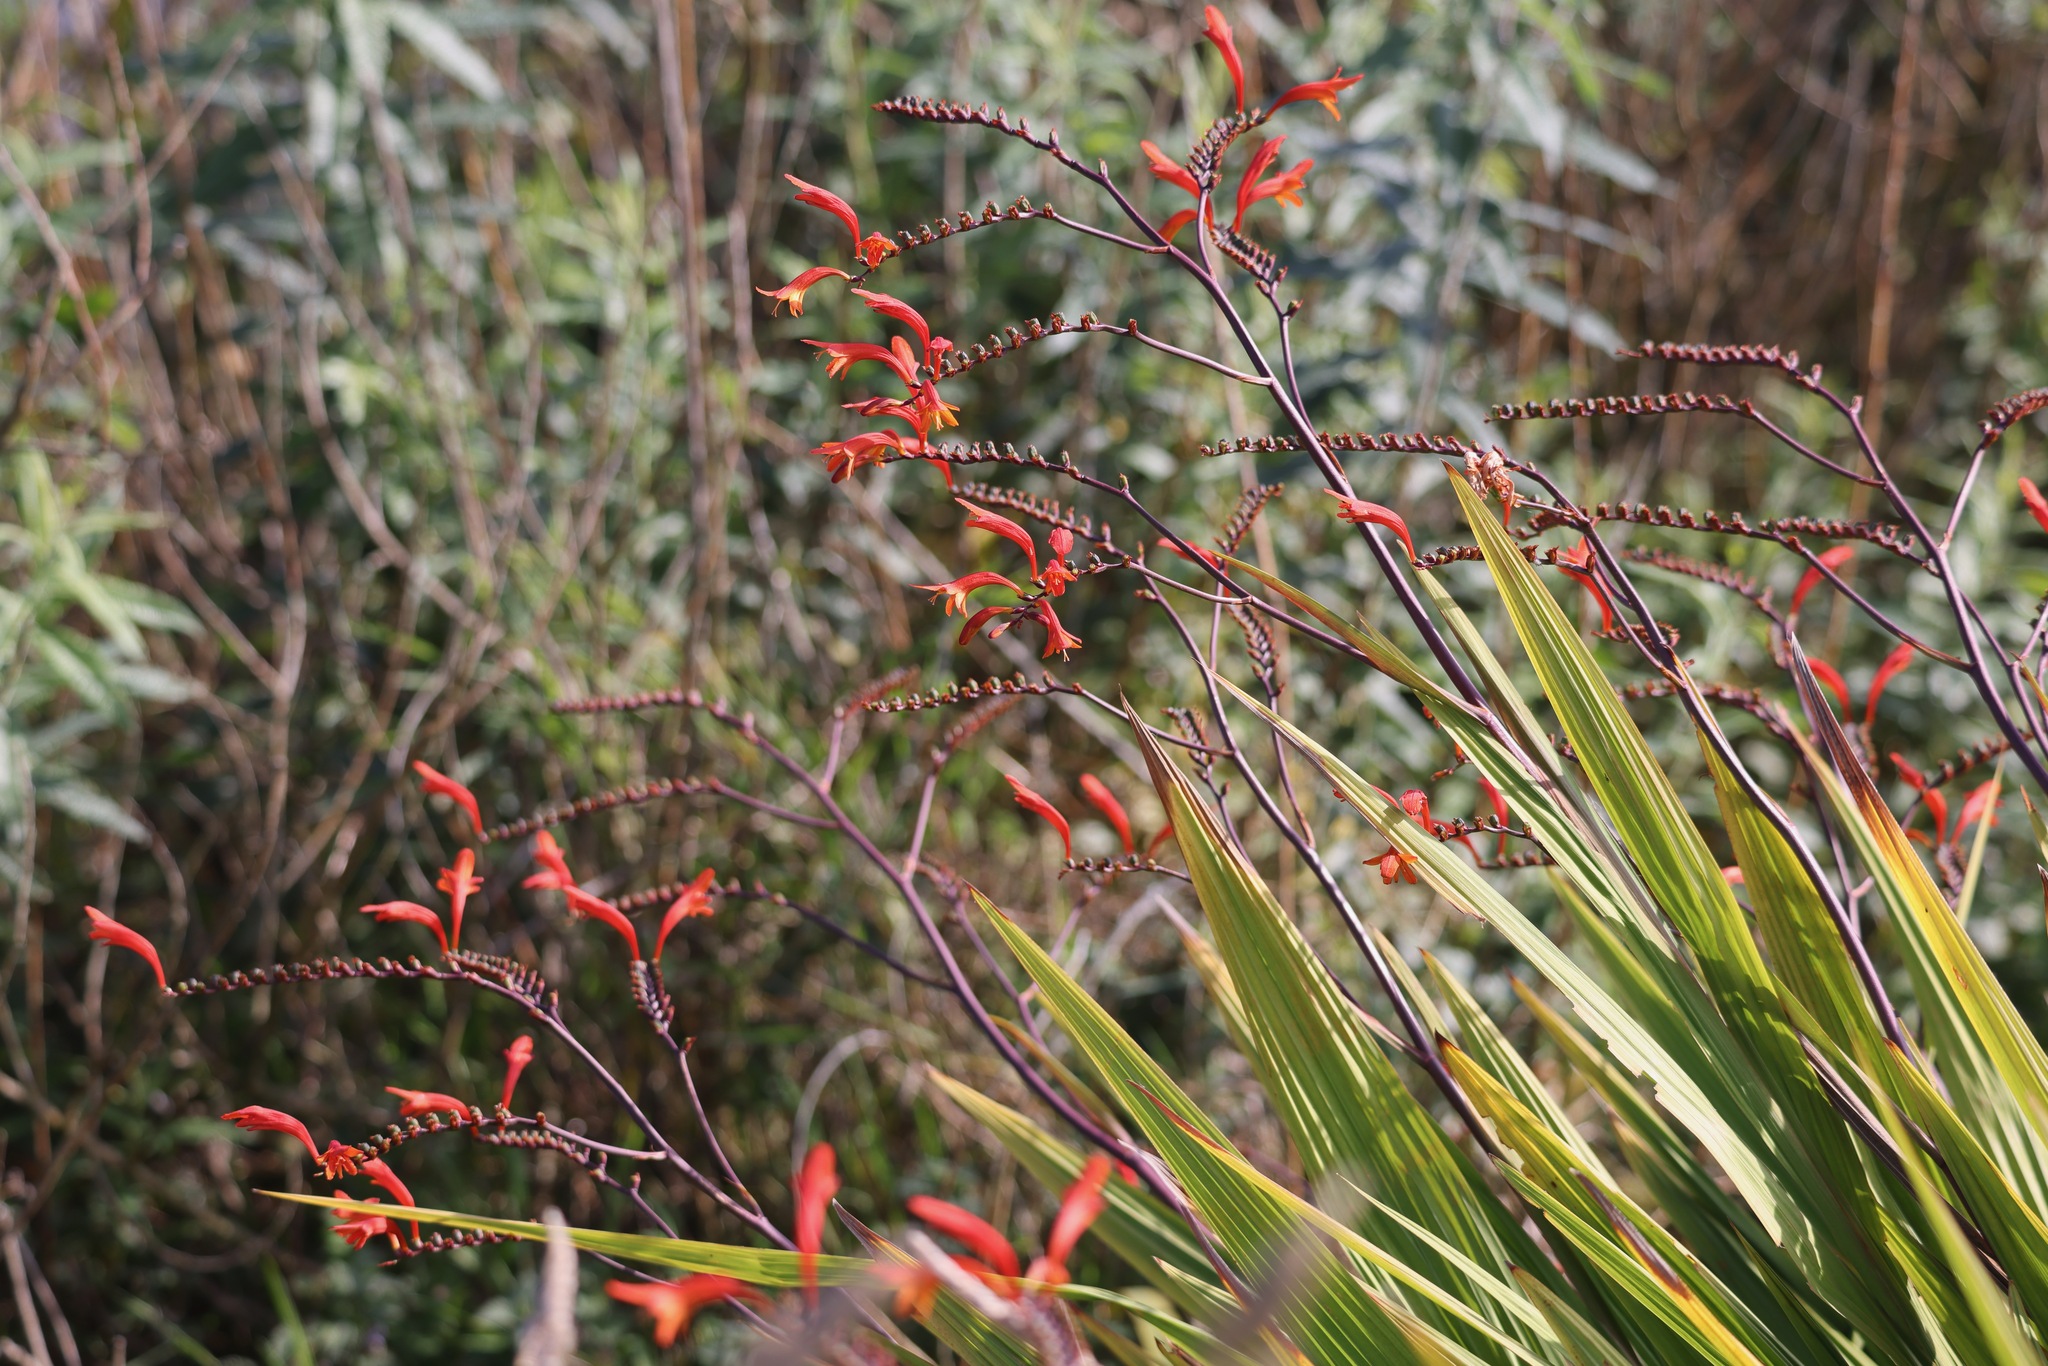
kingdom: Plantae
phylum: Tracheophyta
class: Liliopsida
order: Asparagales
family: Iridaceae
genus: Crocosmia
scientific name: Crocosmia
